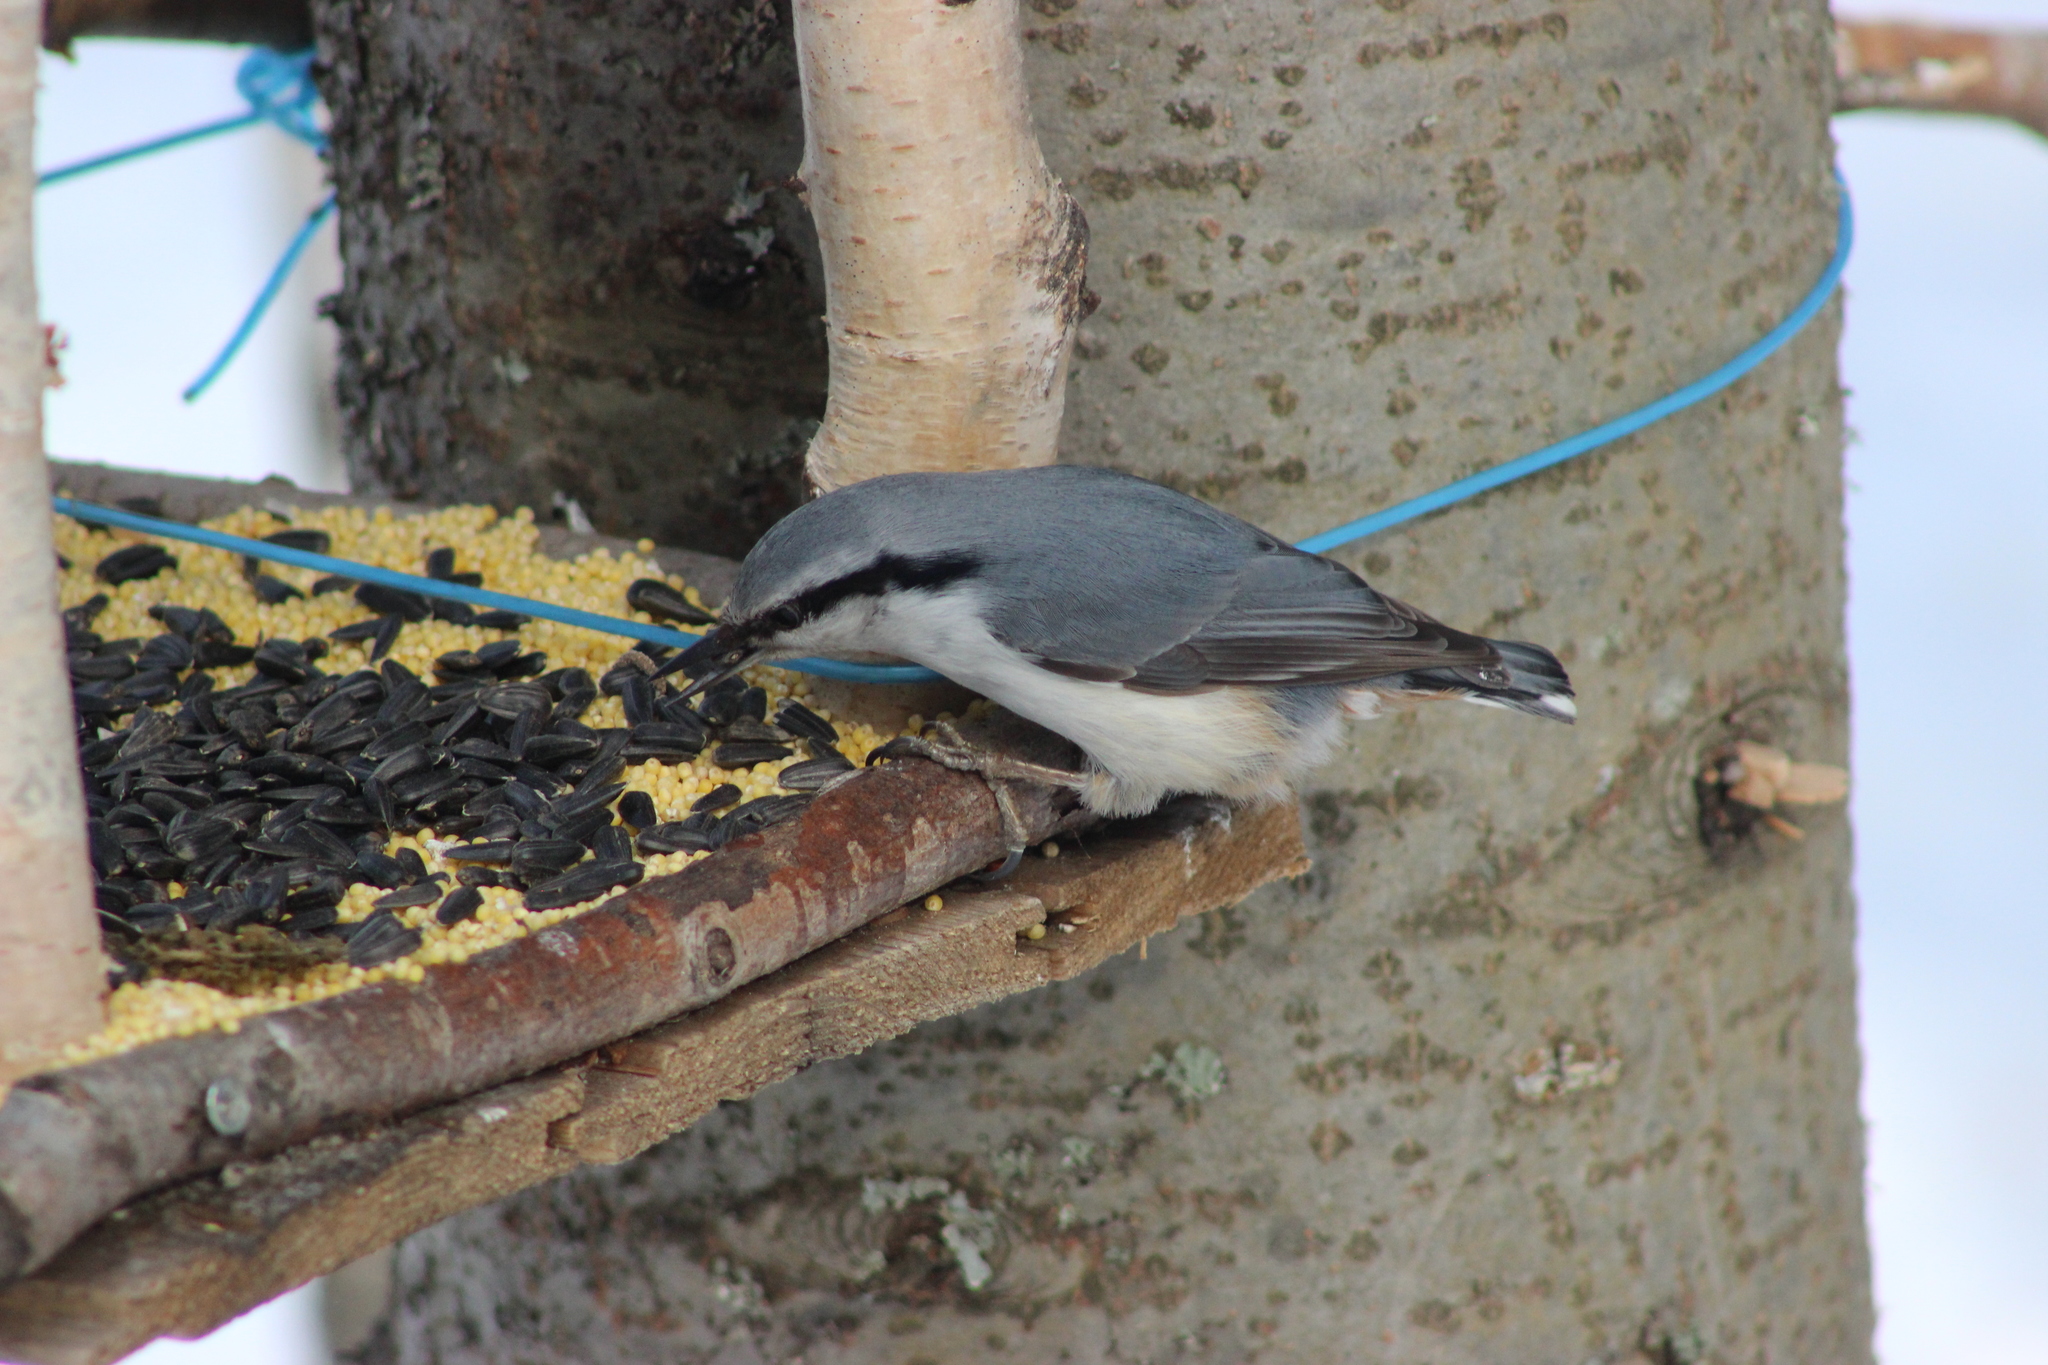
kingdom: Animalia
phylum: Chordata
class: Aves
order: Passeriformes
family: Sittidae
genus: Sitta
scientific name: Sitta europaea
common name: Eurasian nuthatch
